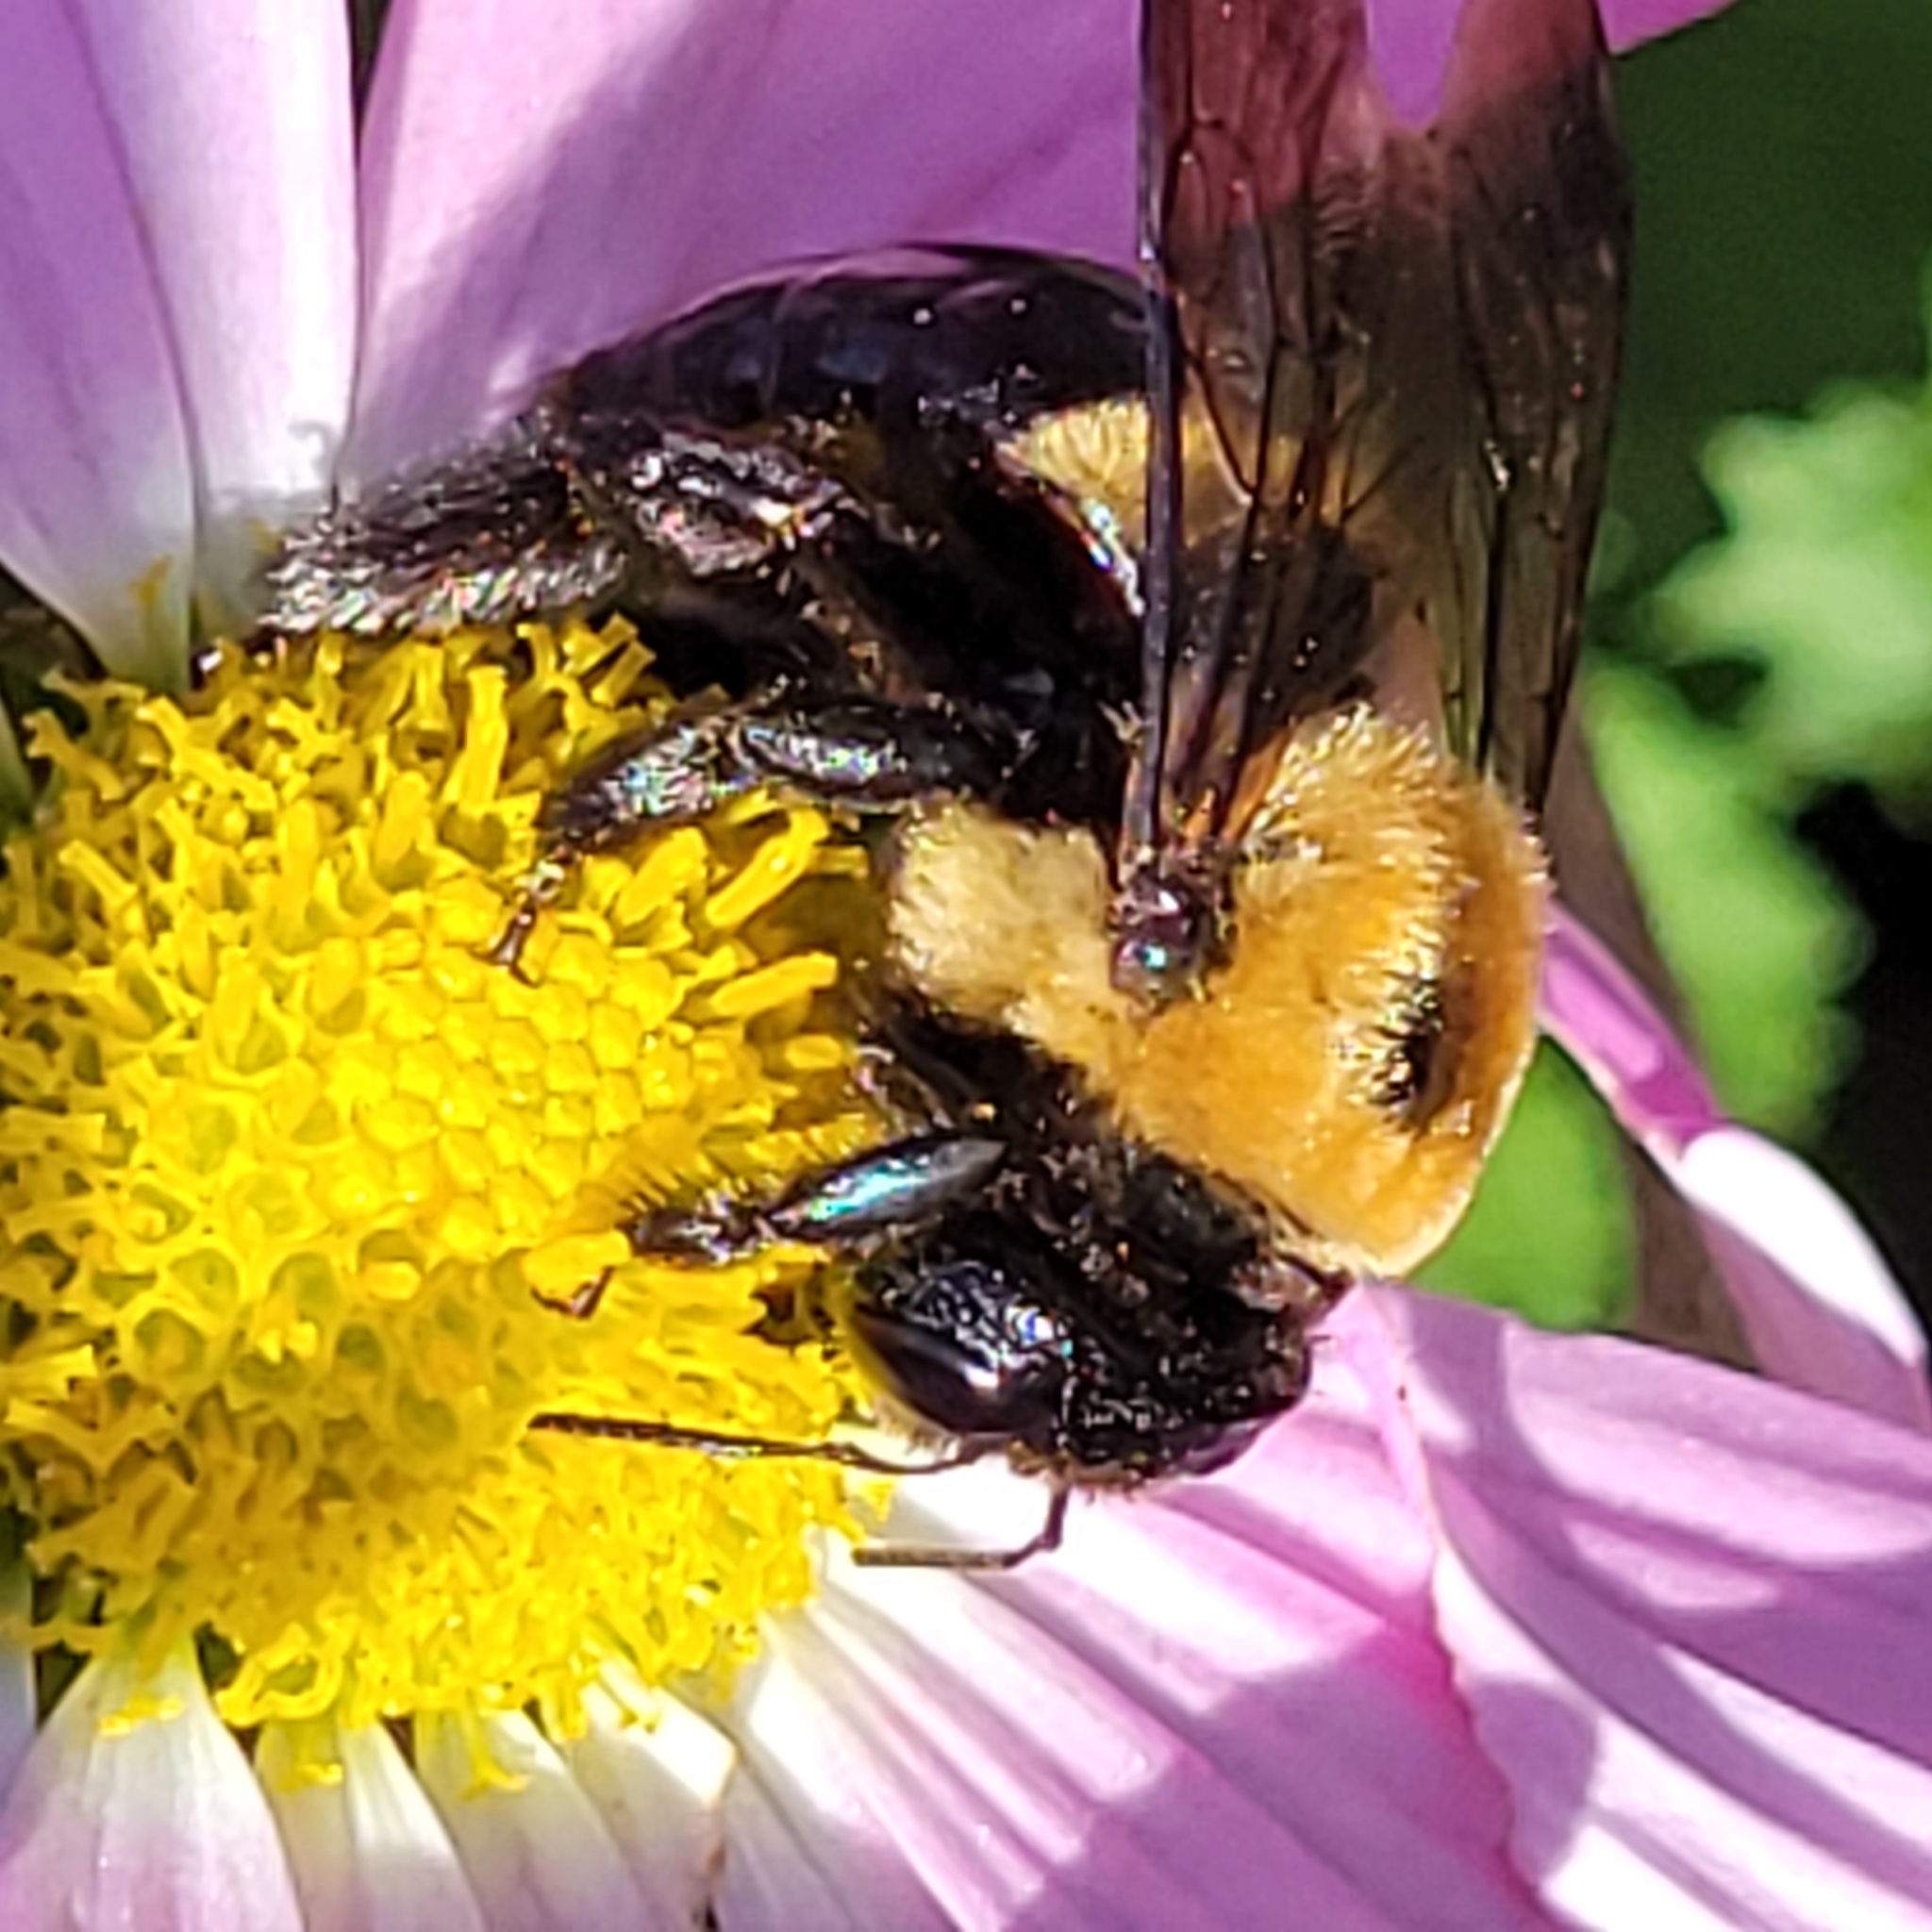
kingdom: Animalia
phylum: Arthropoda
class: Insecta
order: Hymenoptera
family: Apidae
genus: Xylocopa
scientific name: Xylocopa virginica
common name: Carpenter bee
